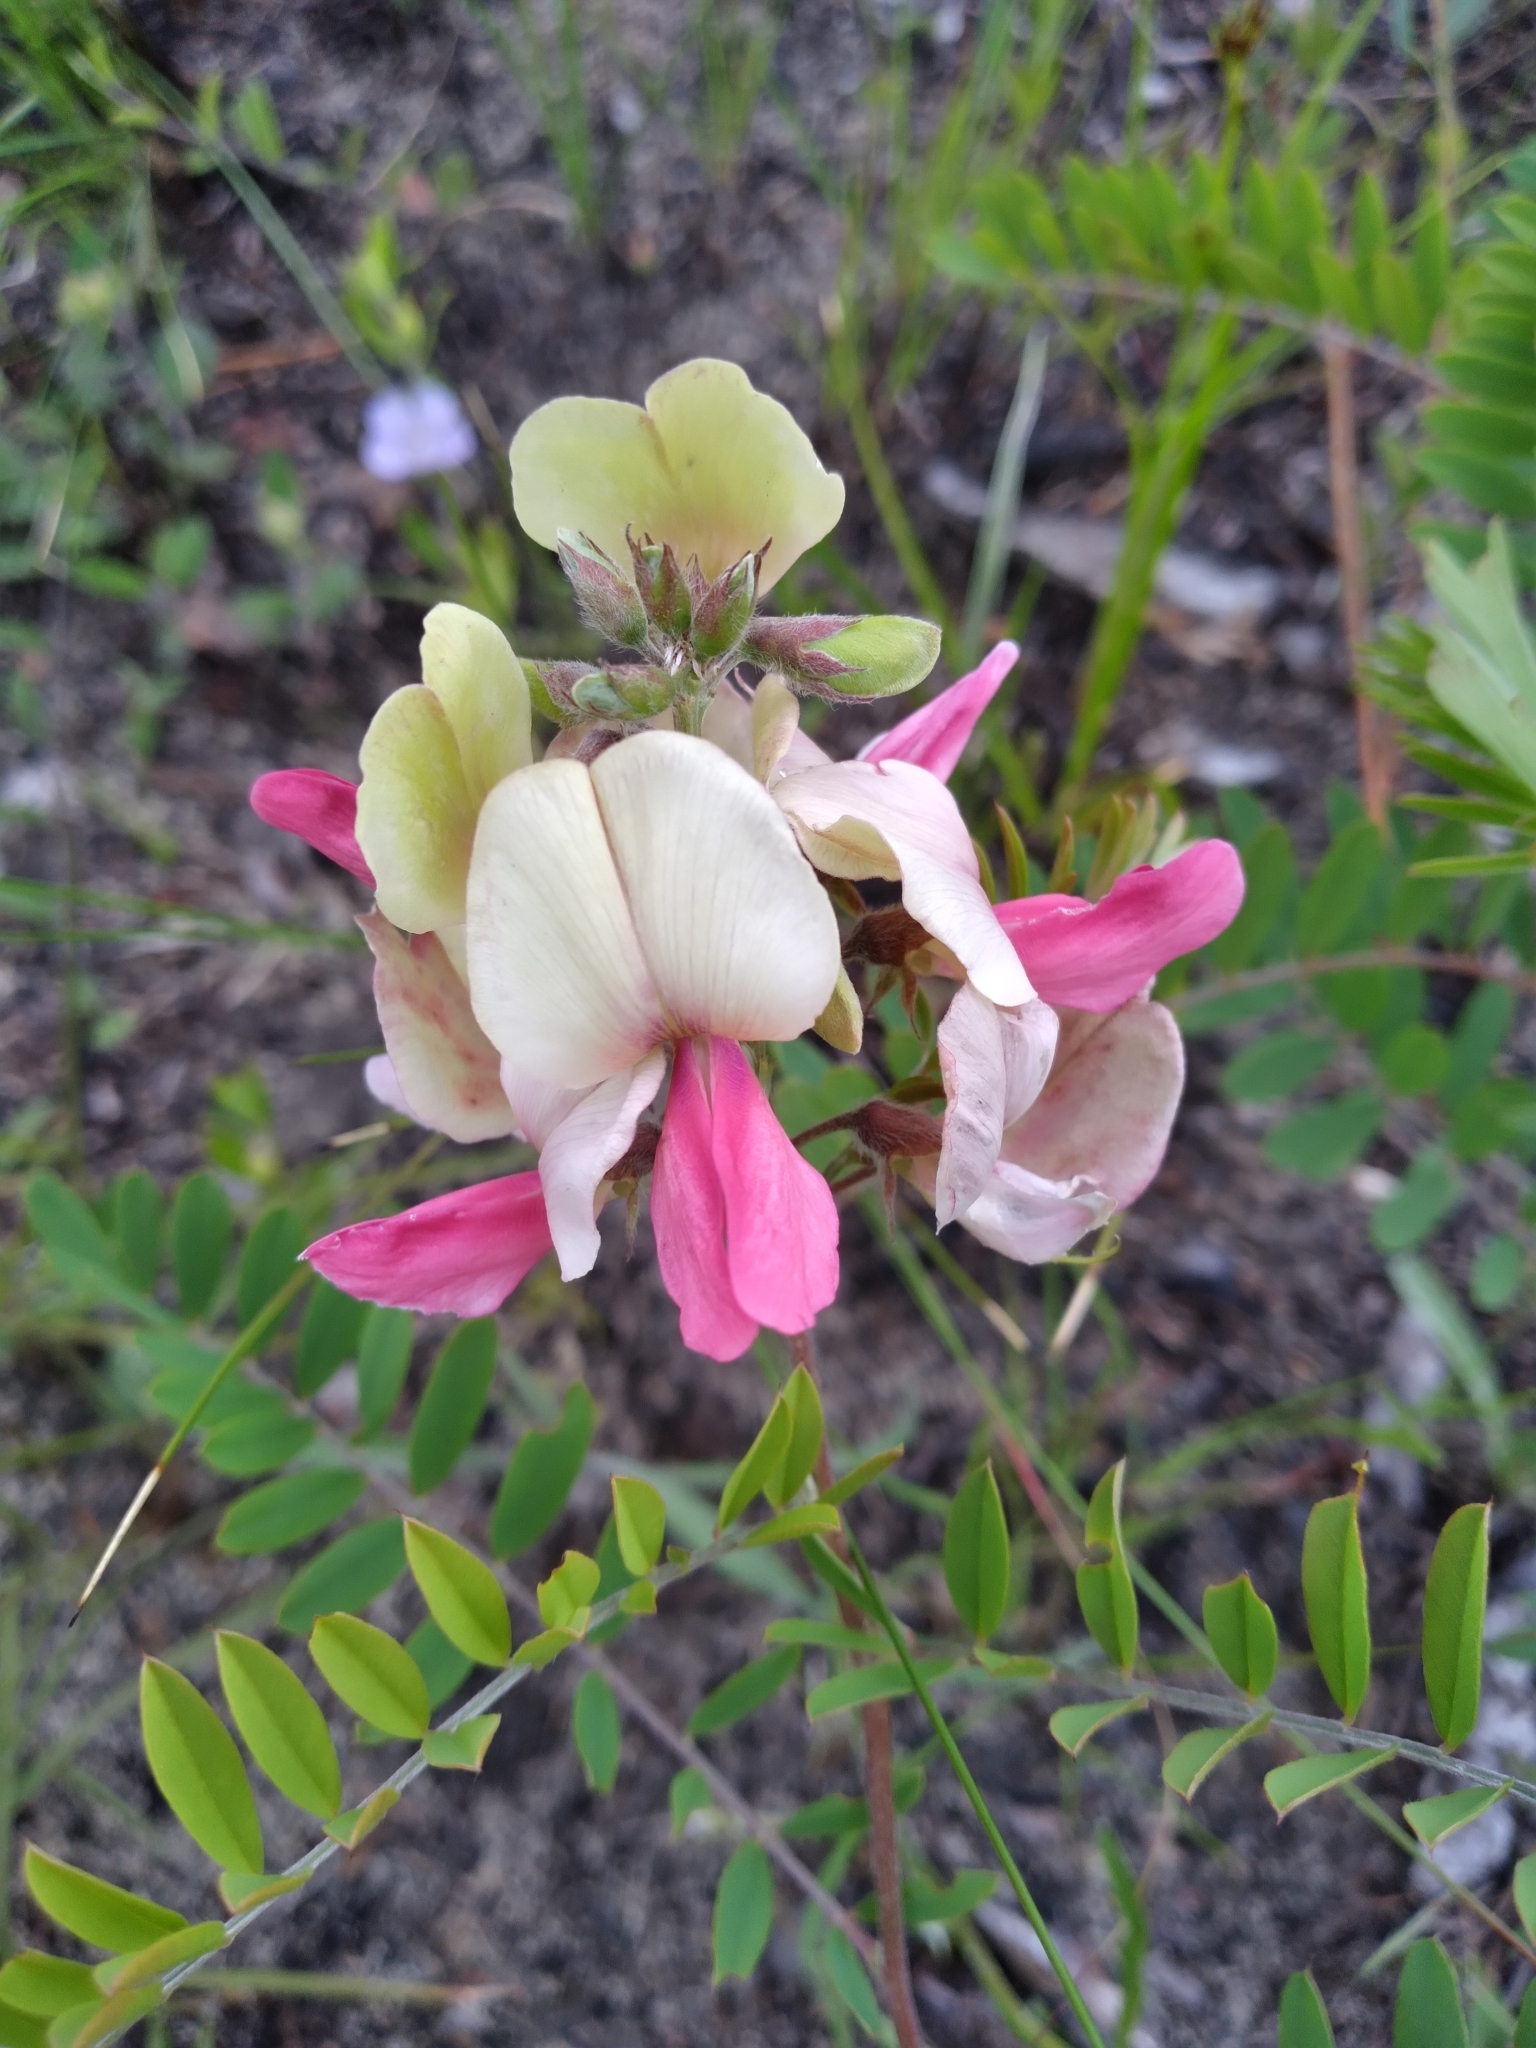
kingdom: Plantae
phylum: Tracheophyta
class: Magnoliopsida
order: Fabales
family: Fabaceae
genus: Tephrosia
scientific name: Tephrosia virginiana
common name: Rabbit-pea
